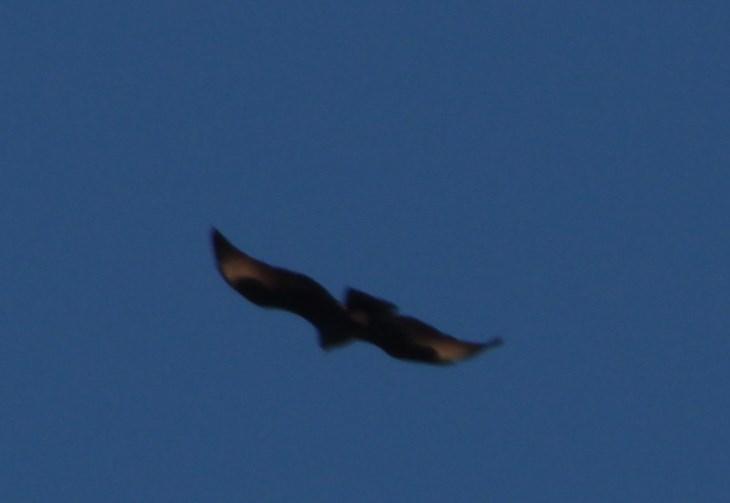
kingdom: Animalia
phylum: Chordata
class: Aves
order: Accipitriformes
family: Accipitridae
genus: Aquila
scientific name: Aquila verreauxii
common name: Verreaux's eagle
